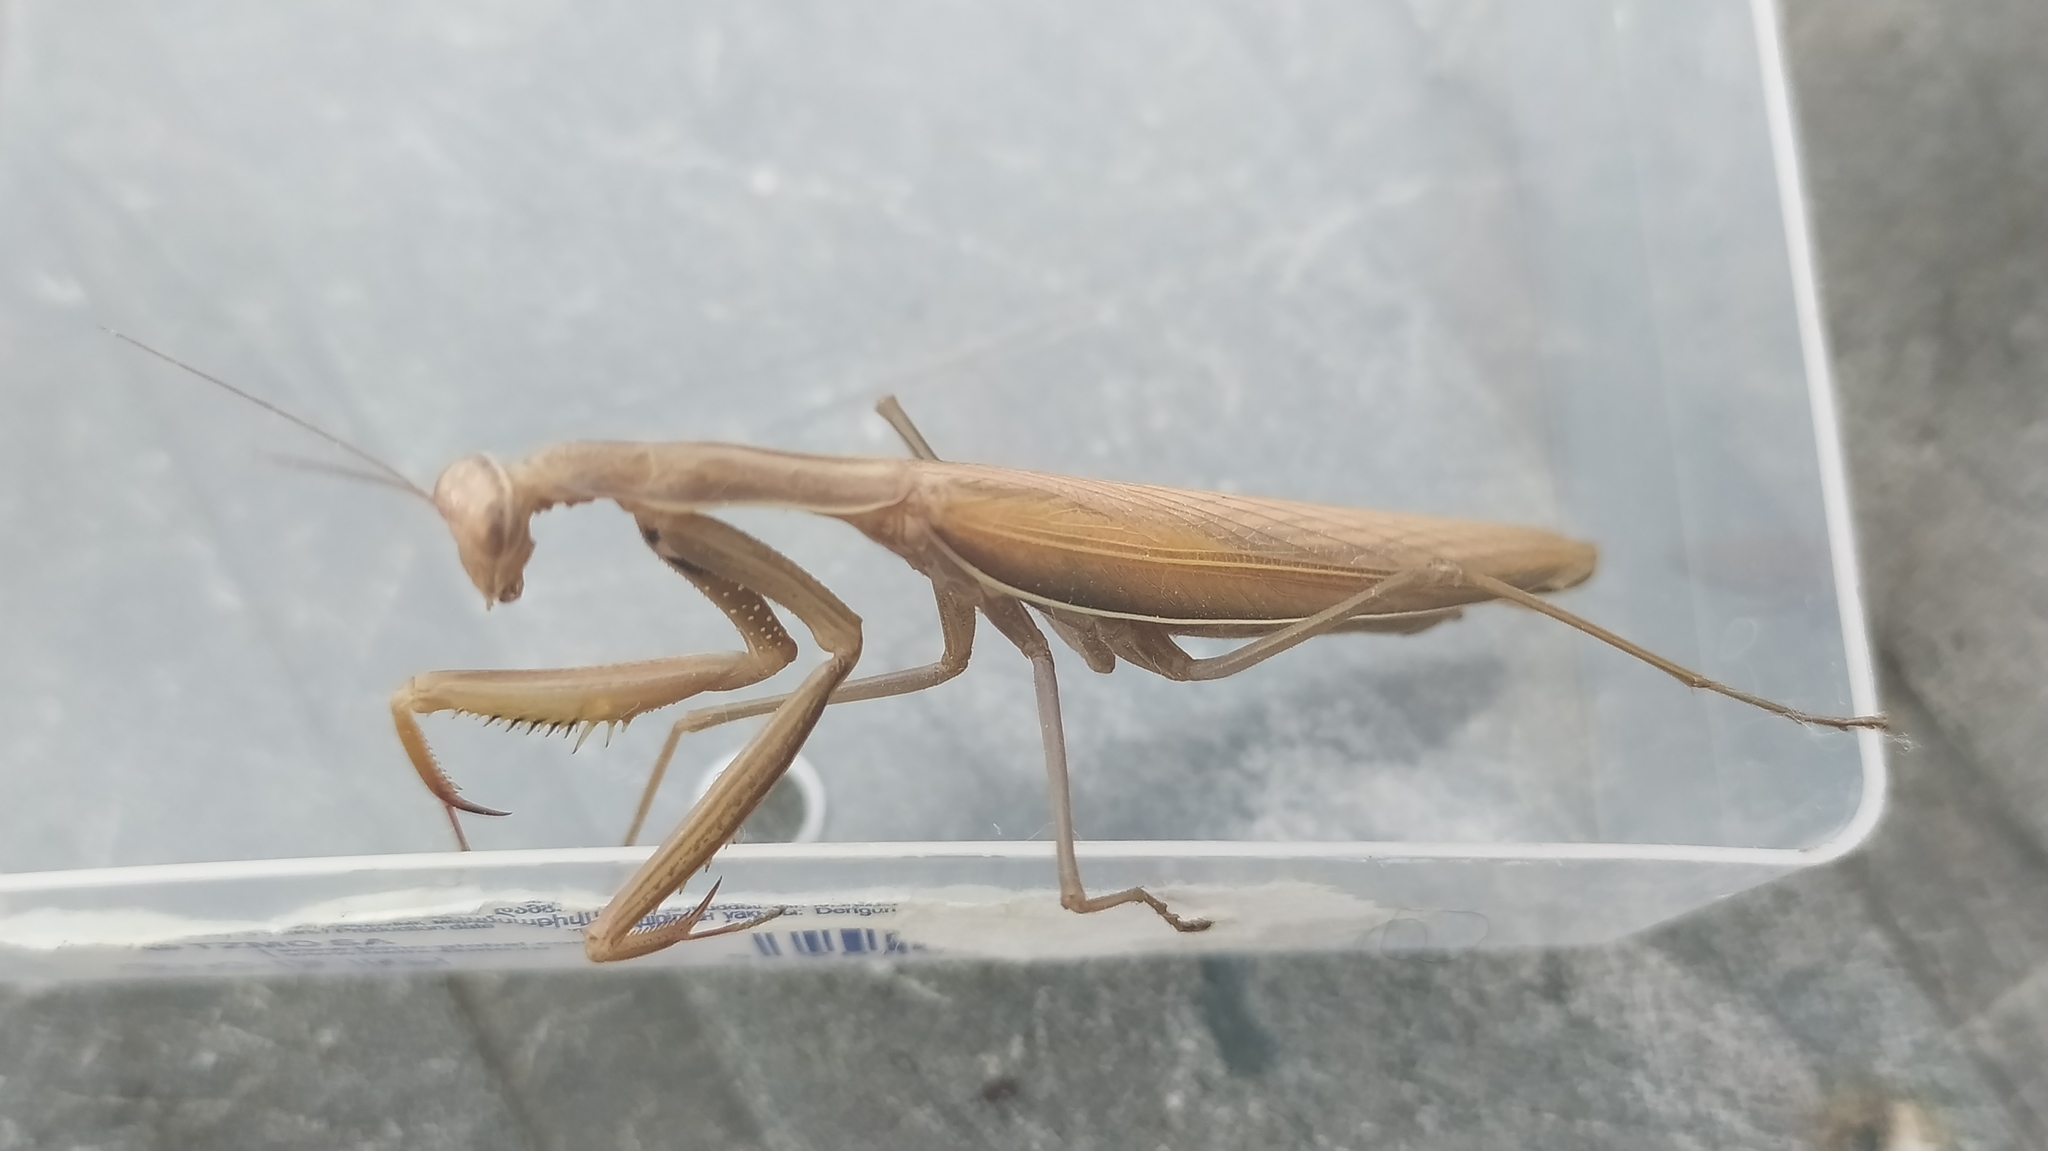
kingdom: Animalia
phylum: Arthropoda
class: Insecta
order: Mantodea
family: Mantidae
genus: Mantis
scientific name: Mantis religiosa
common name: Praying mantis
